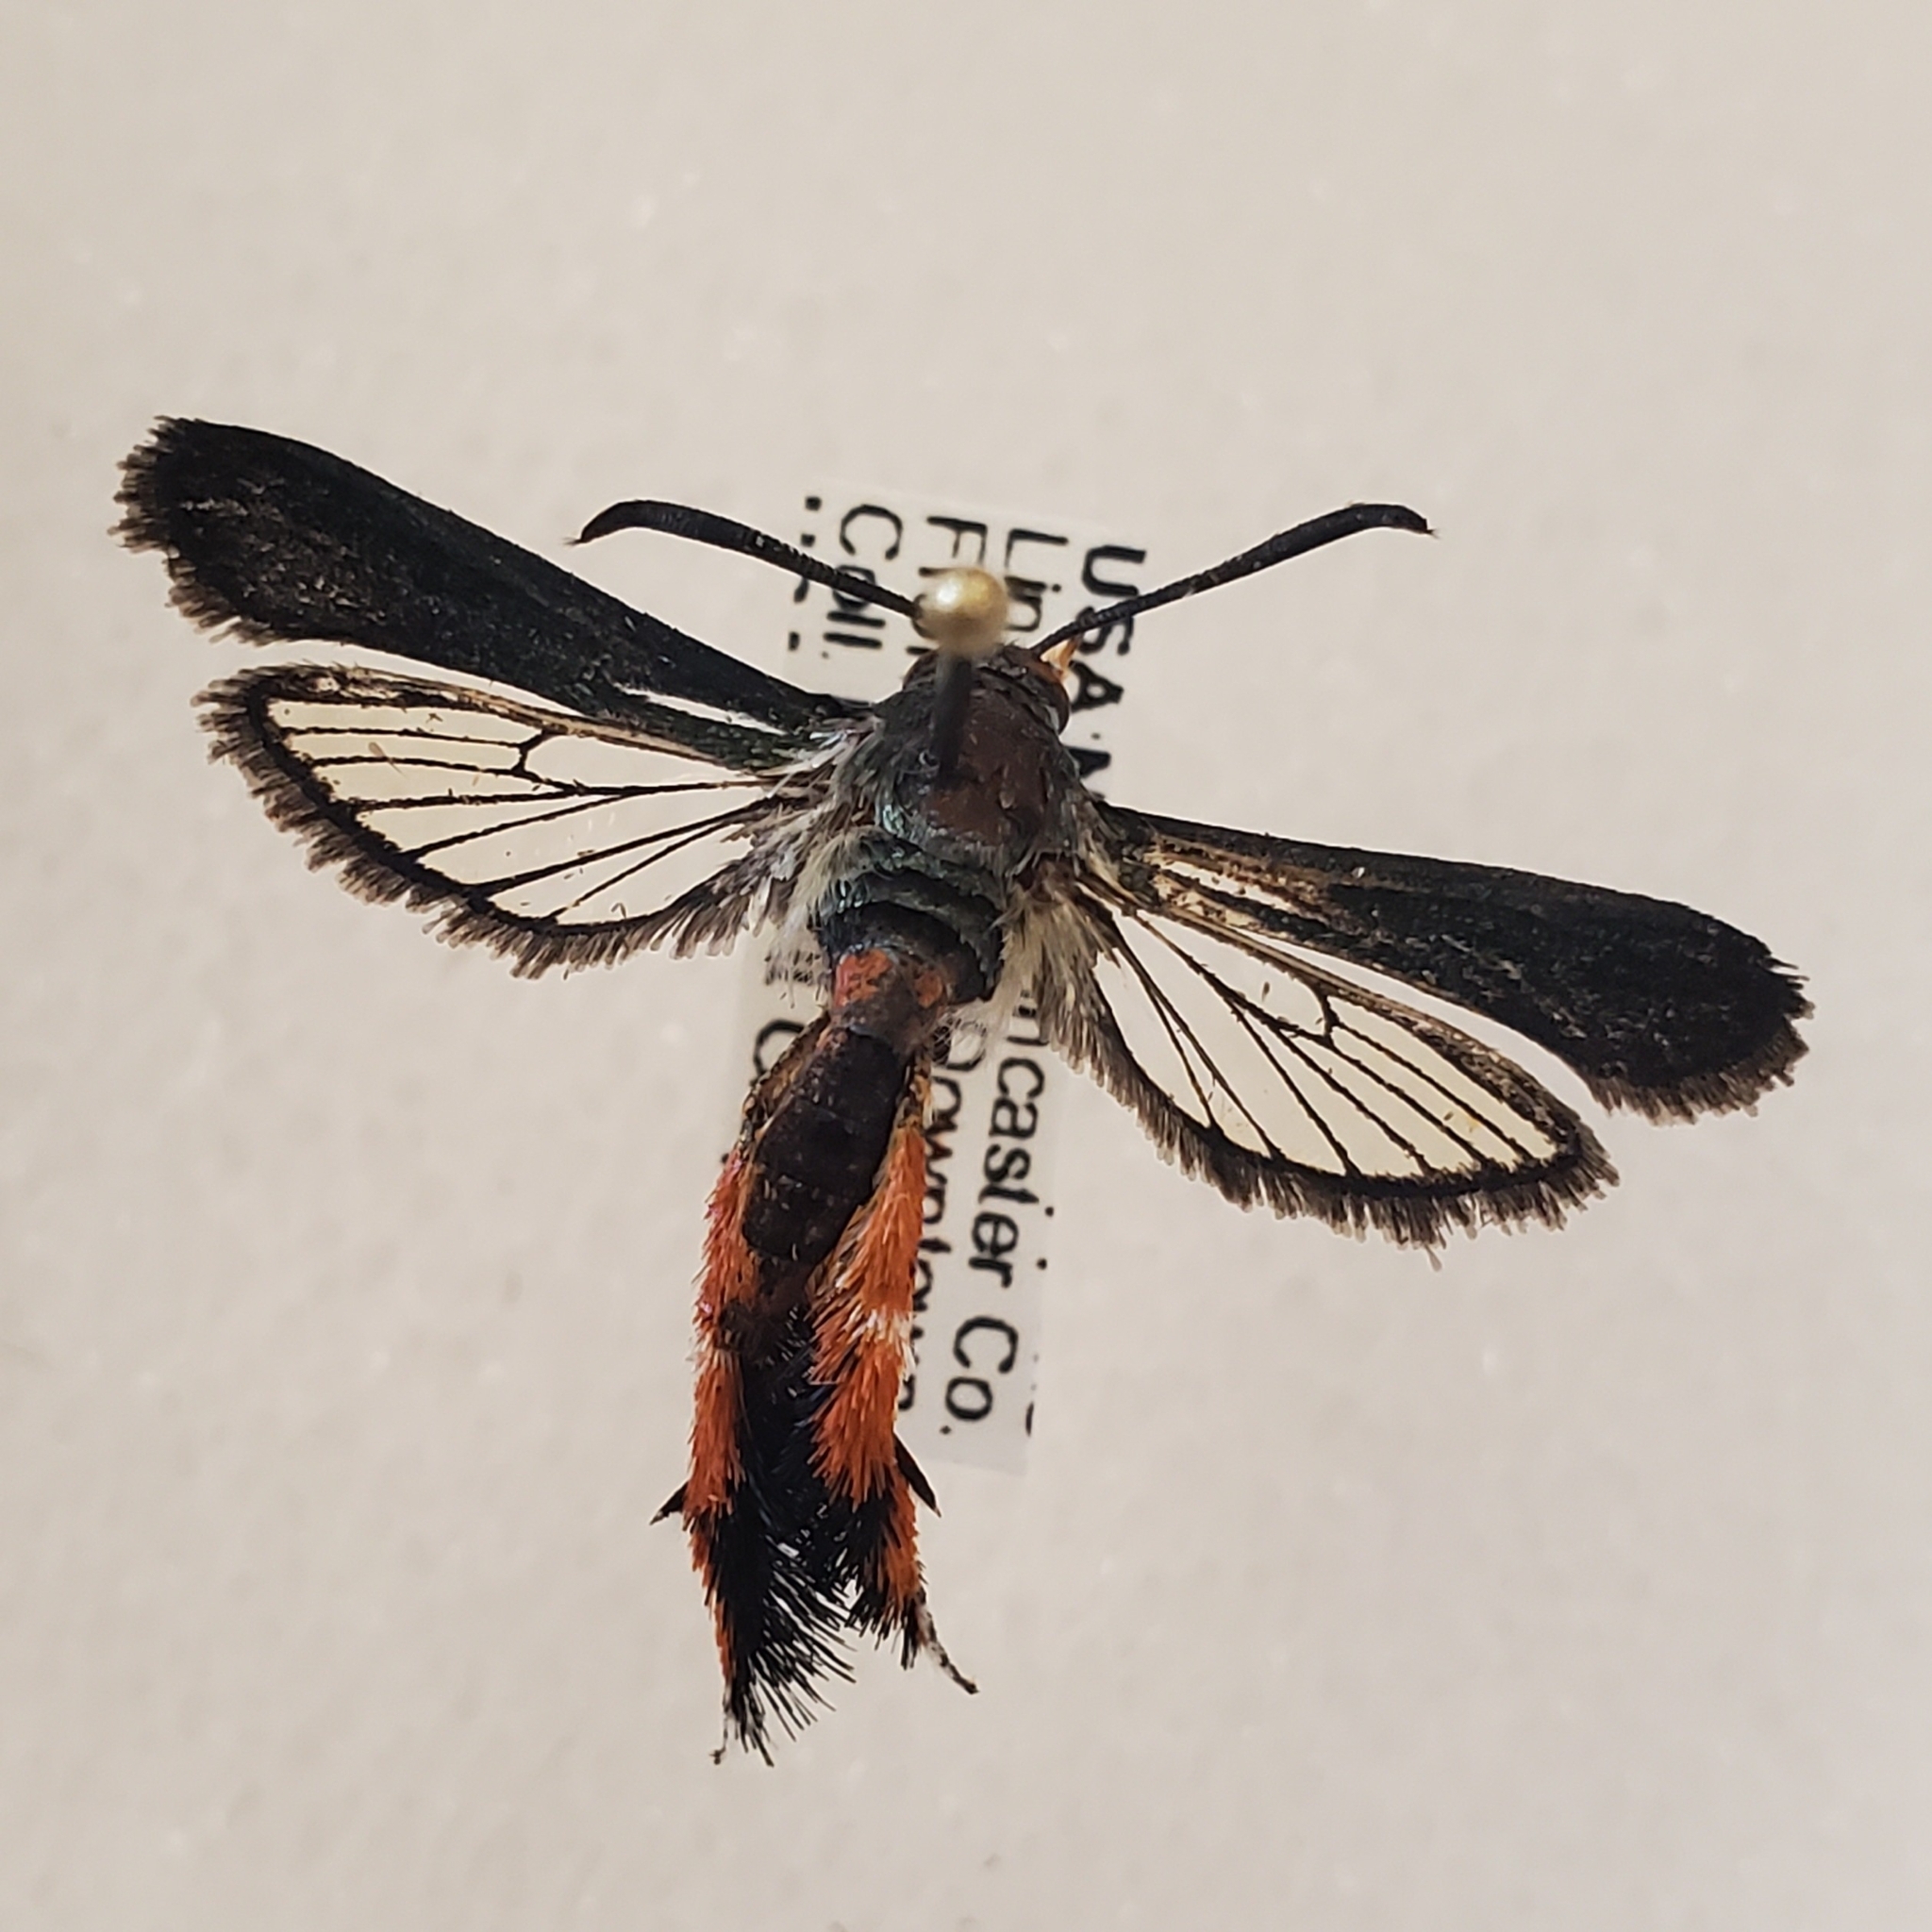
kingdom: Animalia
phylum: Arthropoda
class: Insecta
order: Lepidoptera
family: Sesiidae
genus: Eichlinia
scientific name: Eichlinia cucurbitae
